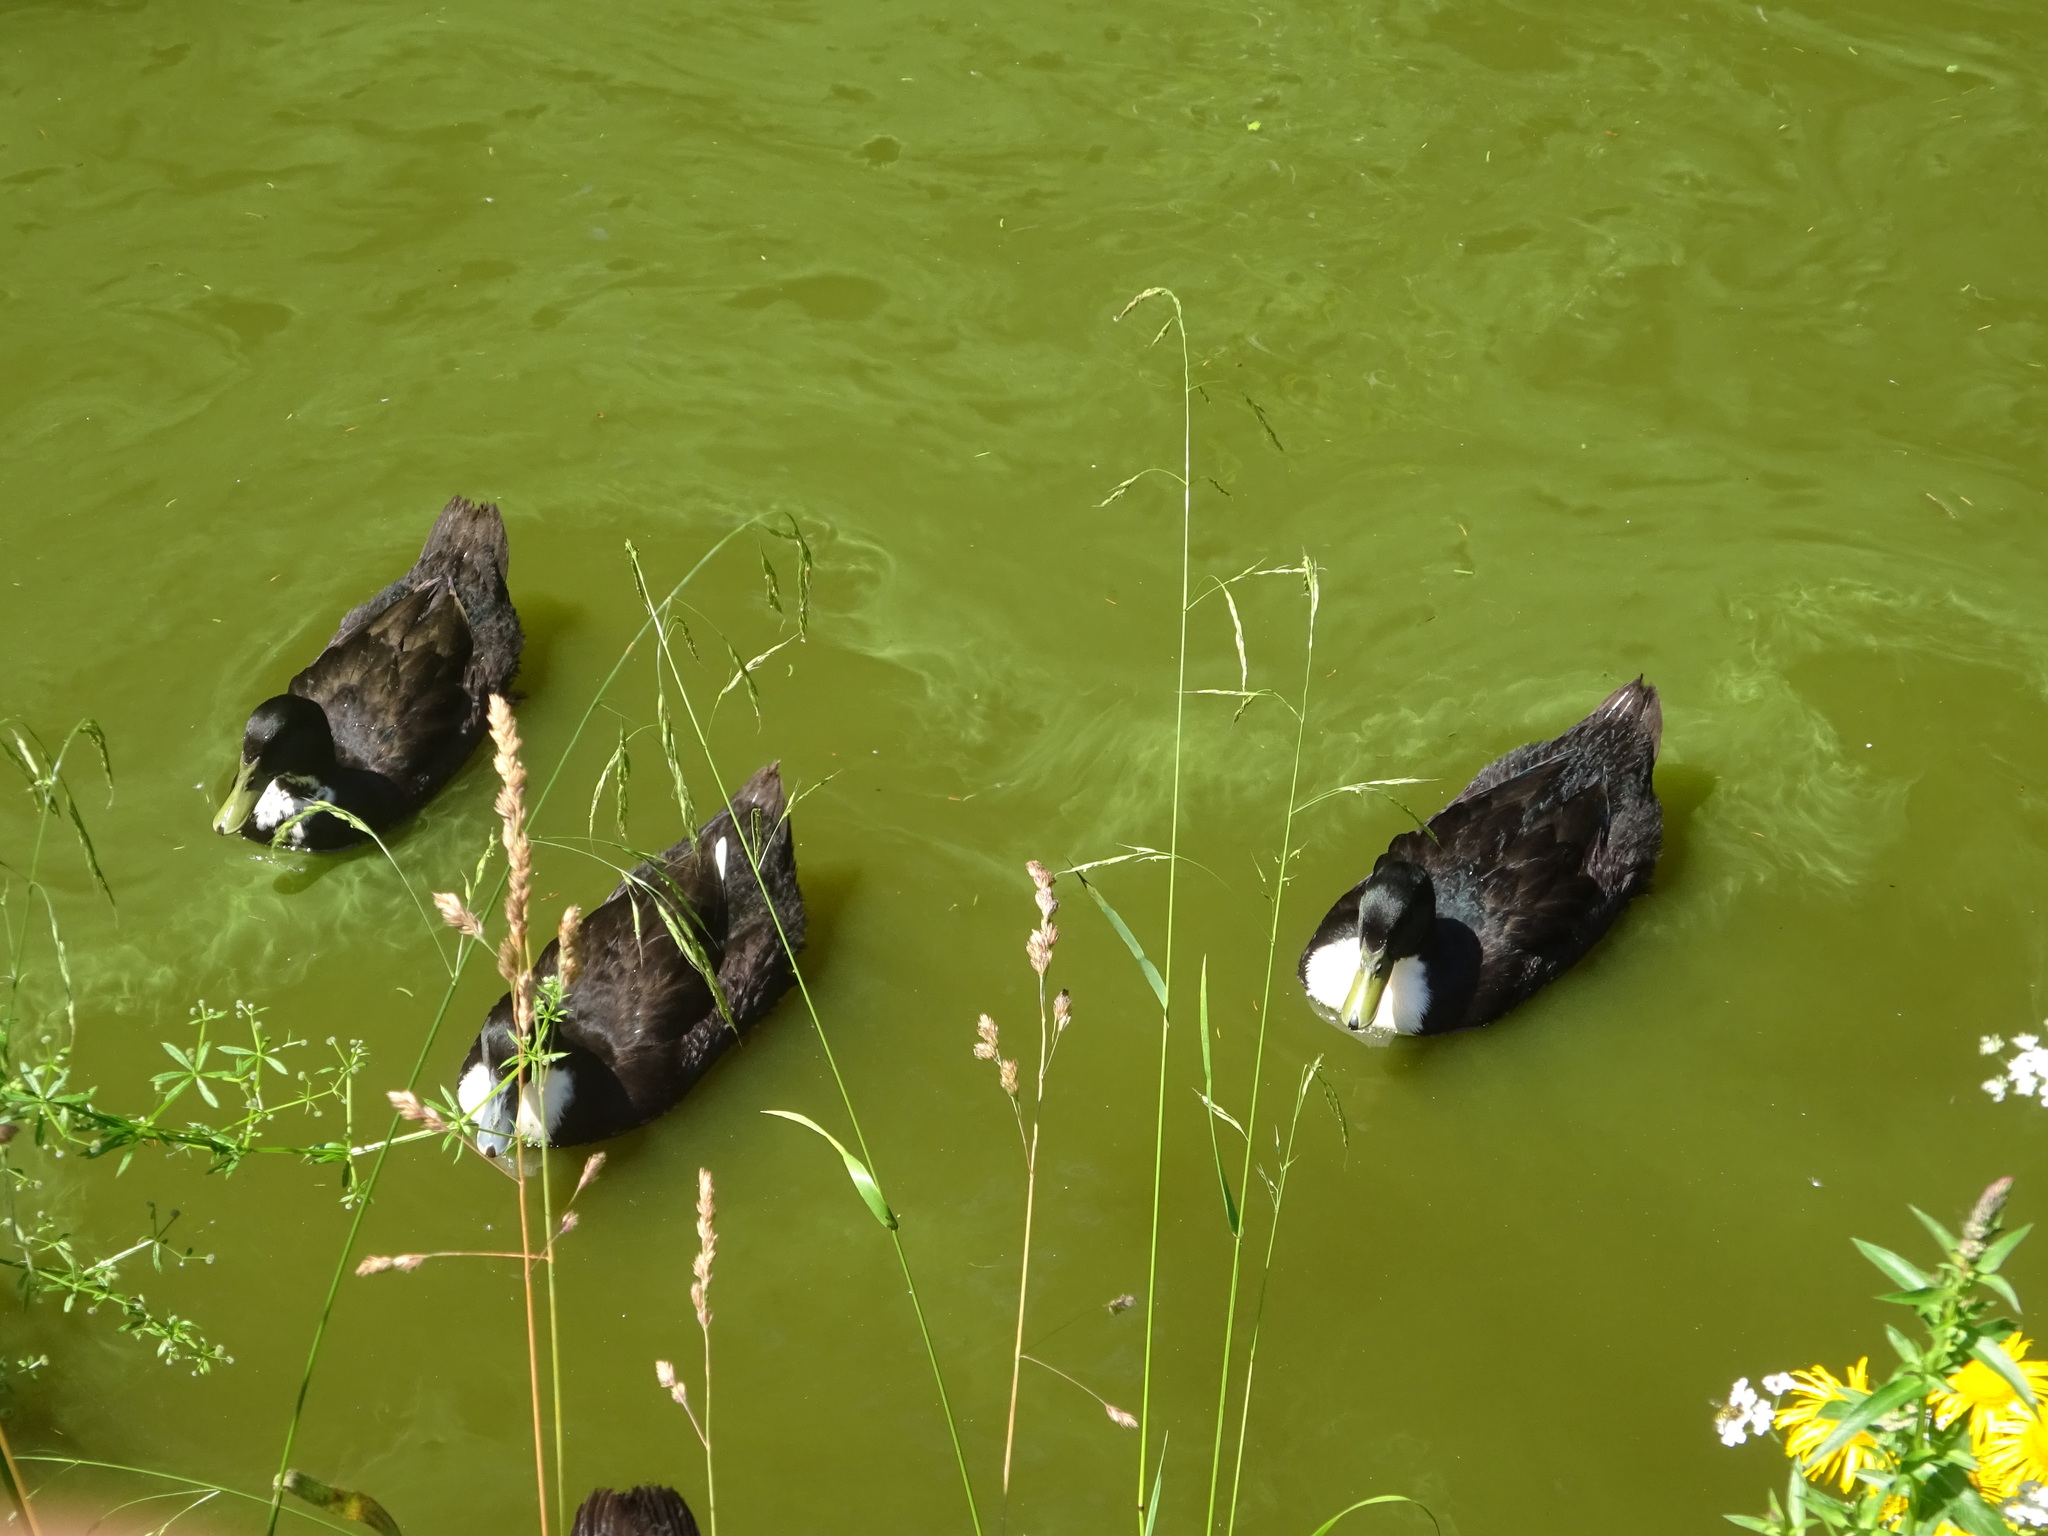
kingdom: Animalia
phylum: Chordata
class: Aves
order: Anseriformes
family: Anatidae
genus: Anas
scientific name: Anas platyrhynchos
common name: Mallard
